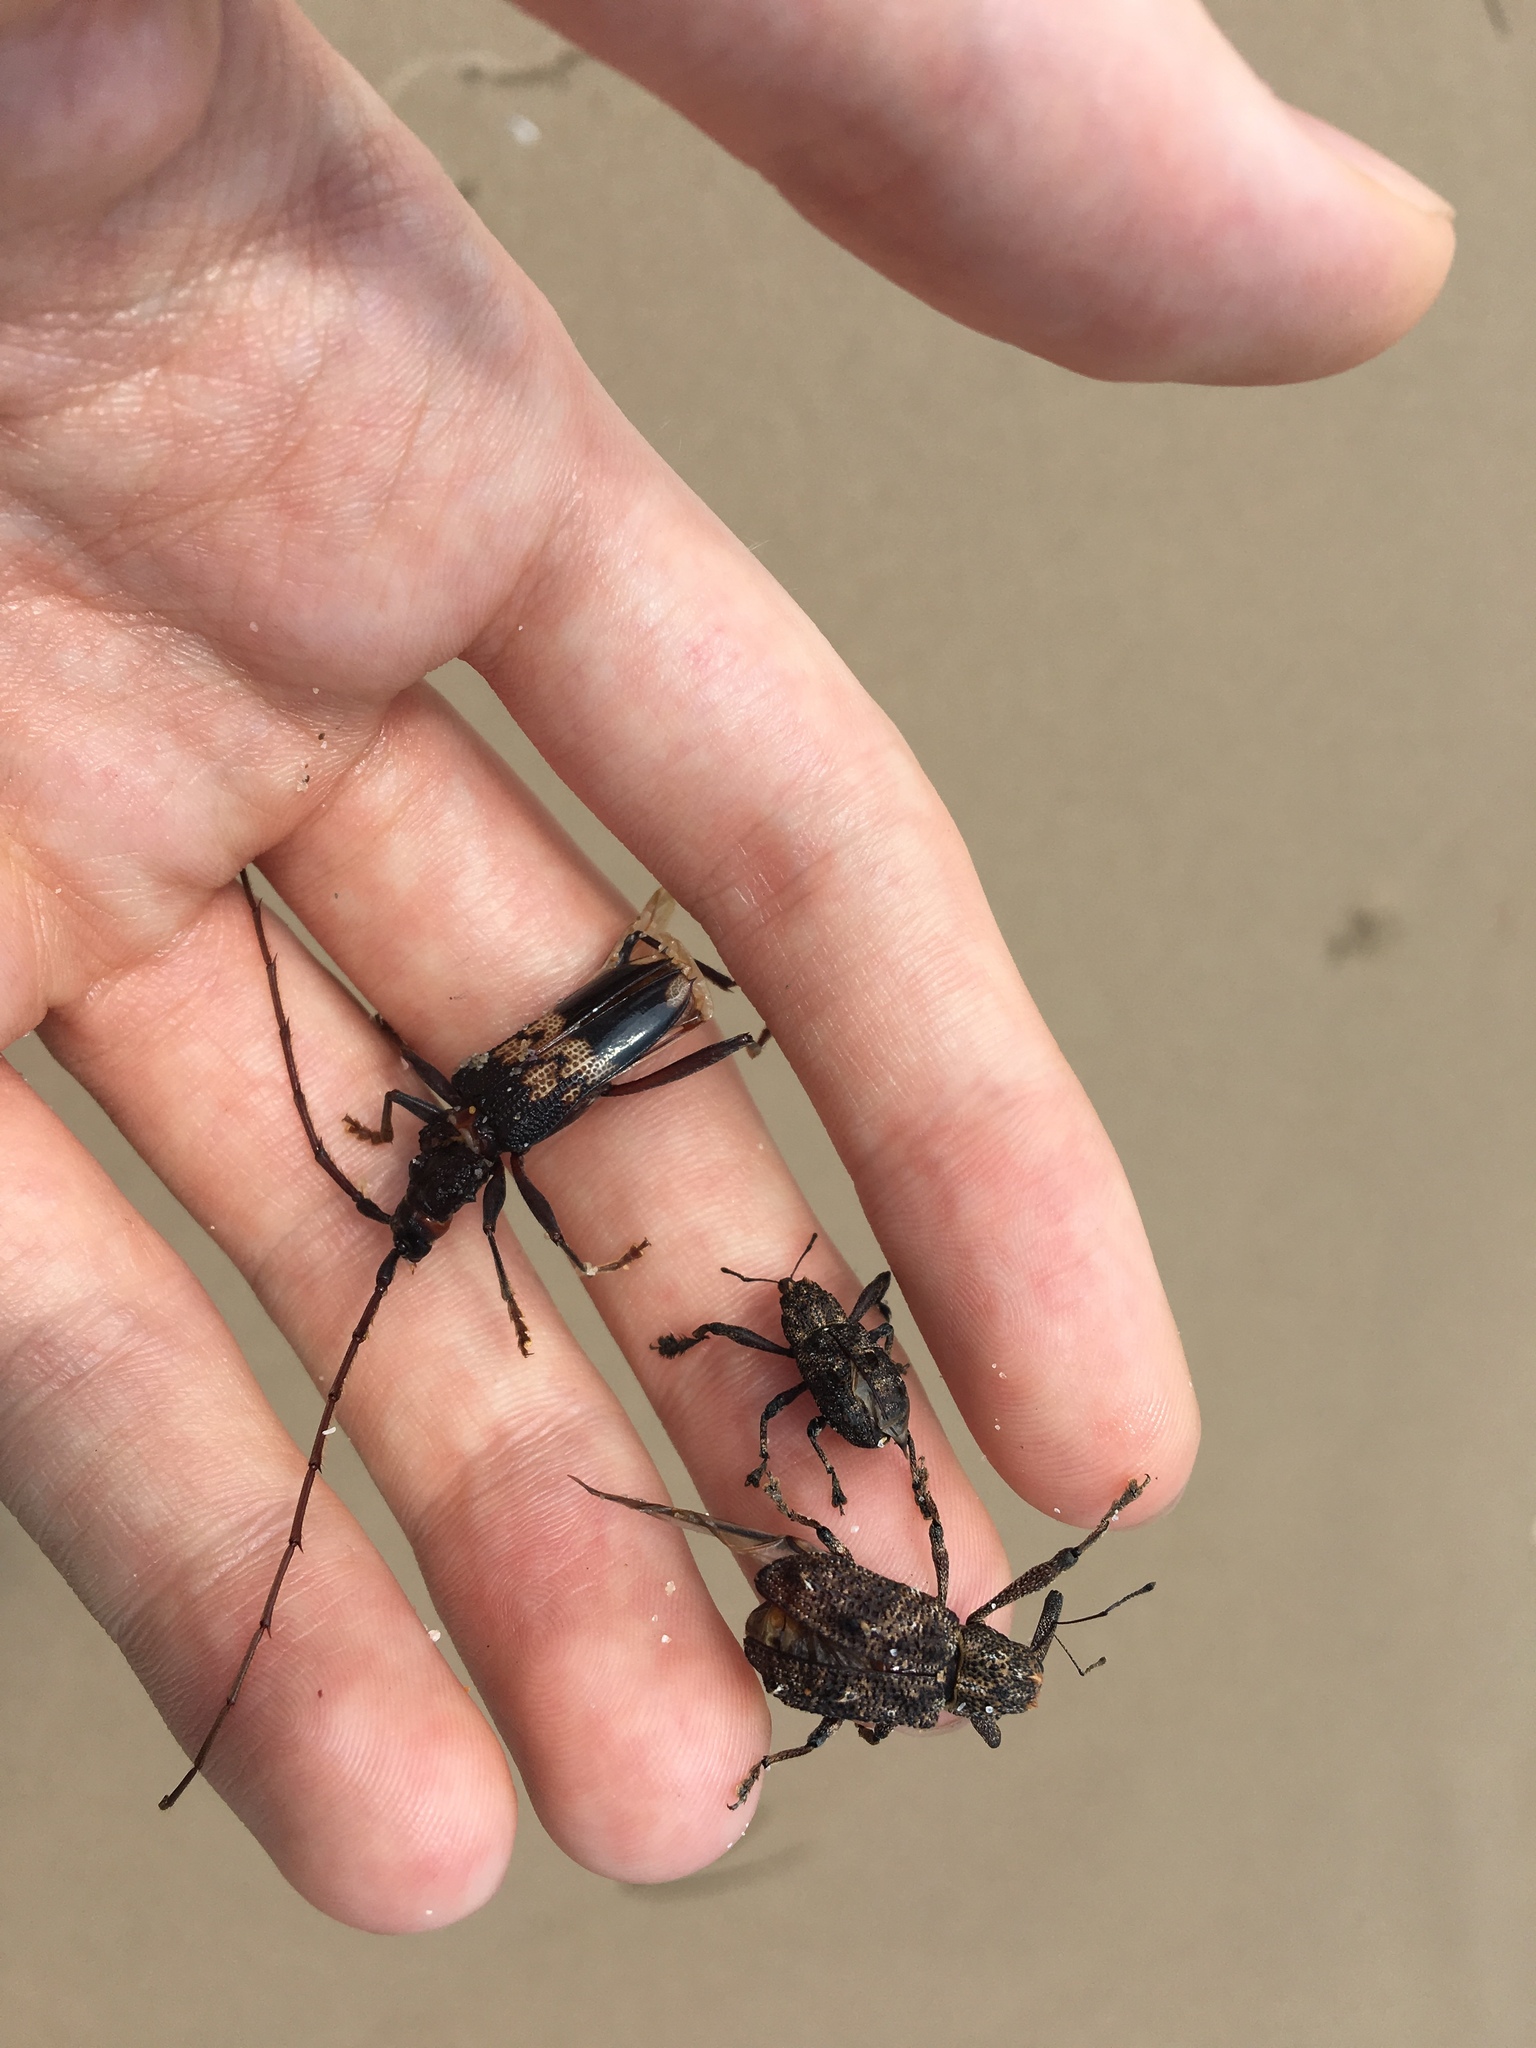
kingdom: Animalia
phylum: Arthropoda
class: Insecta
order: Coleoptera
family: Cerambycidae
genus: Phoracantha
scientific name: Phoracantha semipunctata
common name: Eucalyptus longhorn borer
